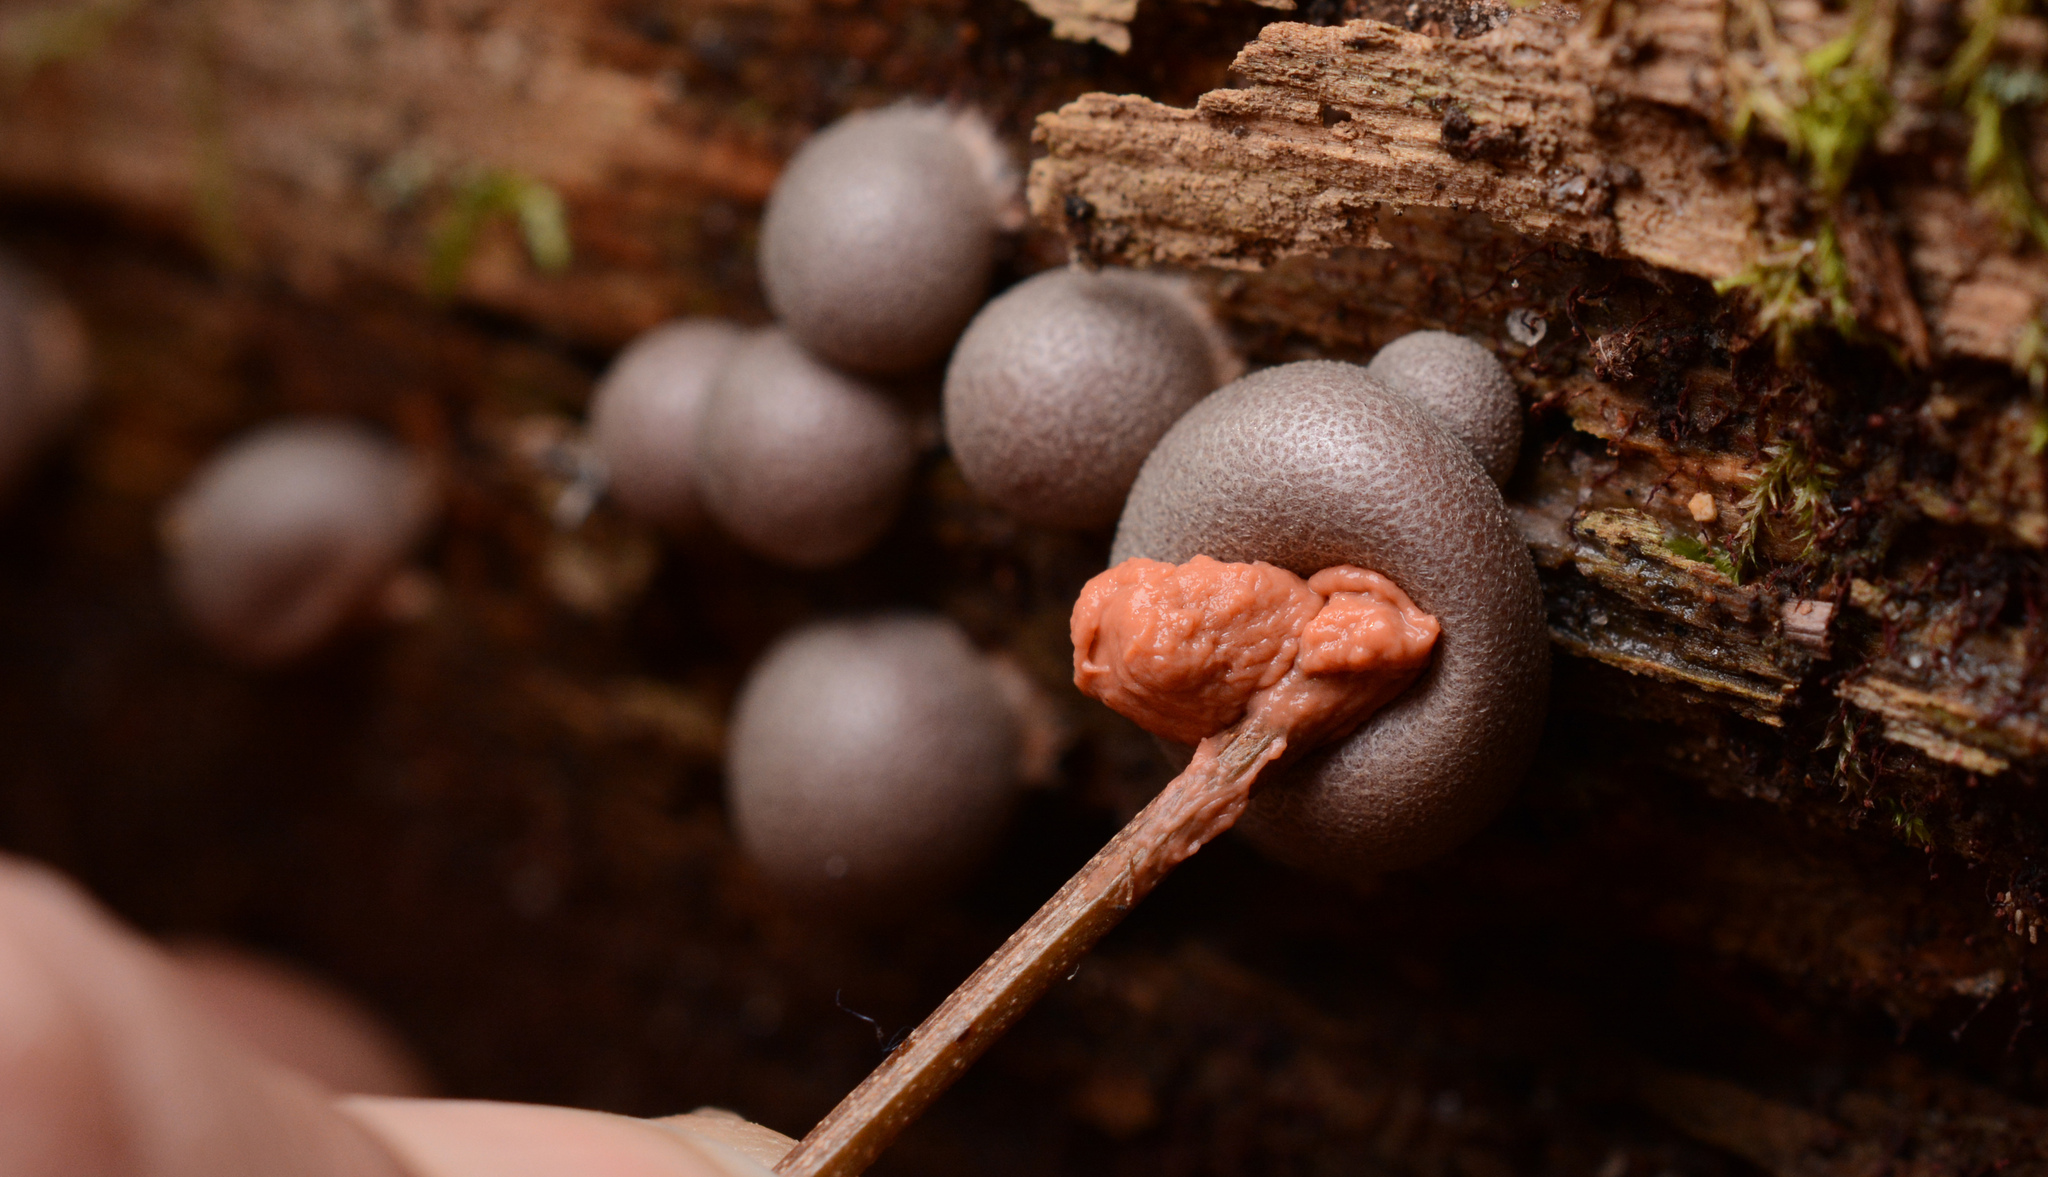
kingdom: Protozoa
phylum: Mycetozoa
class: Myxomycetes
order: Cribrariales
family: Tubiferaceae
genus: Lycogala
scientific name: Lycogala epidendrum
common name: Wolf's milk
